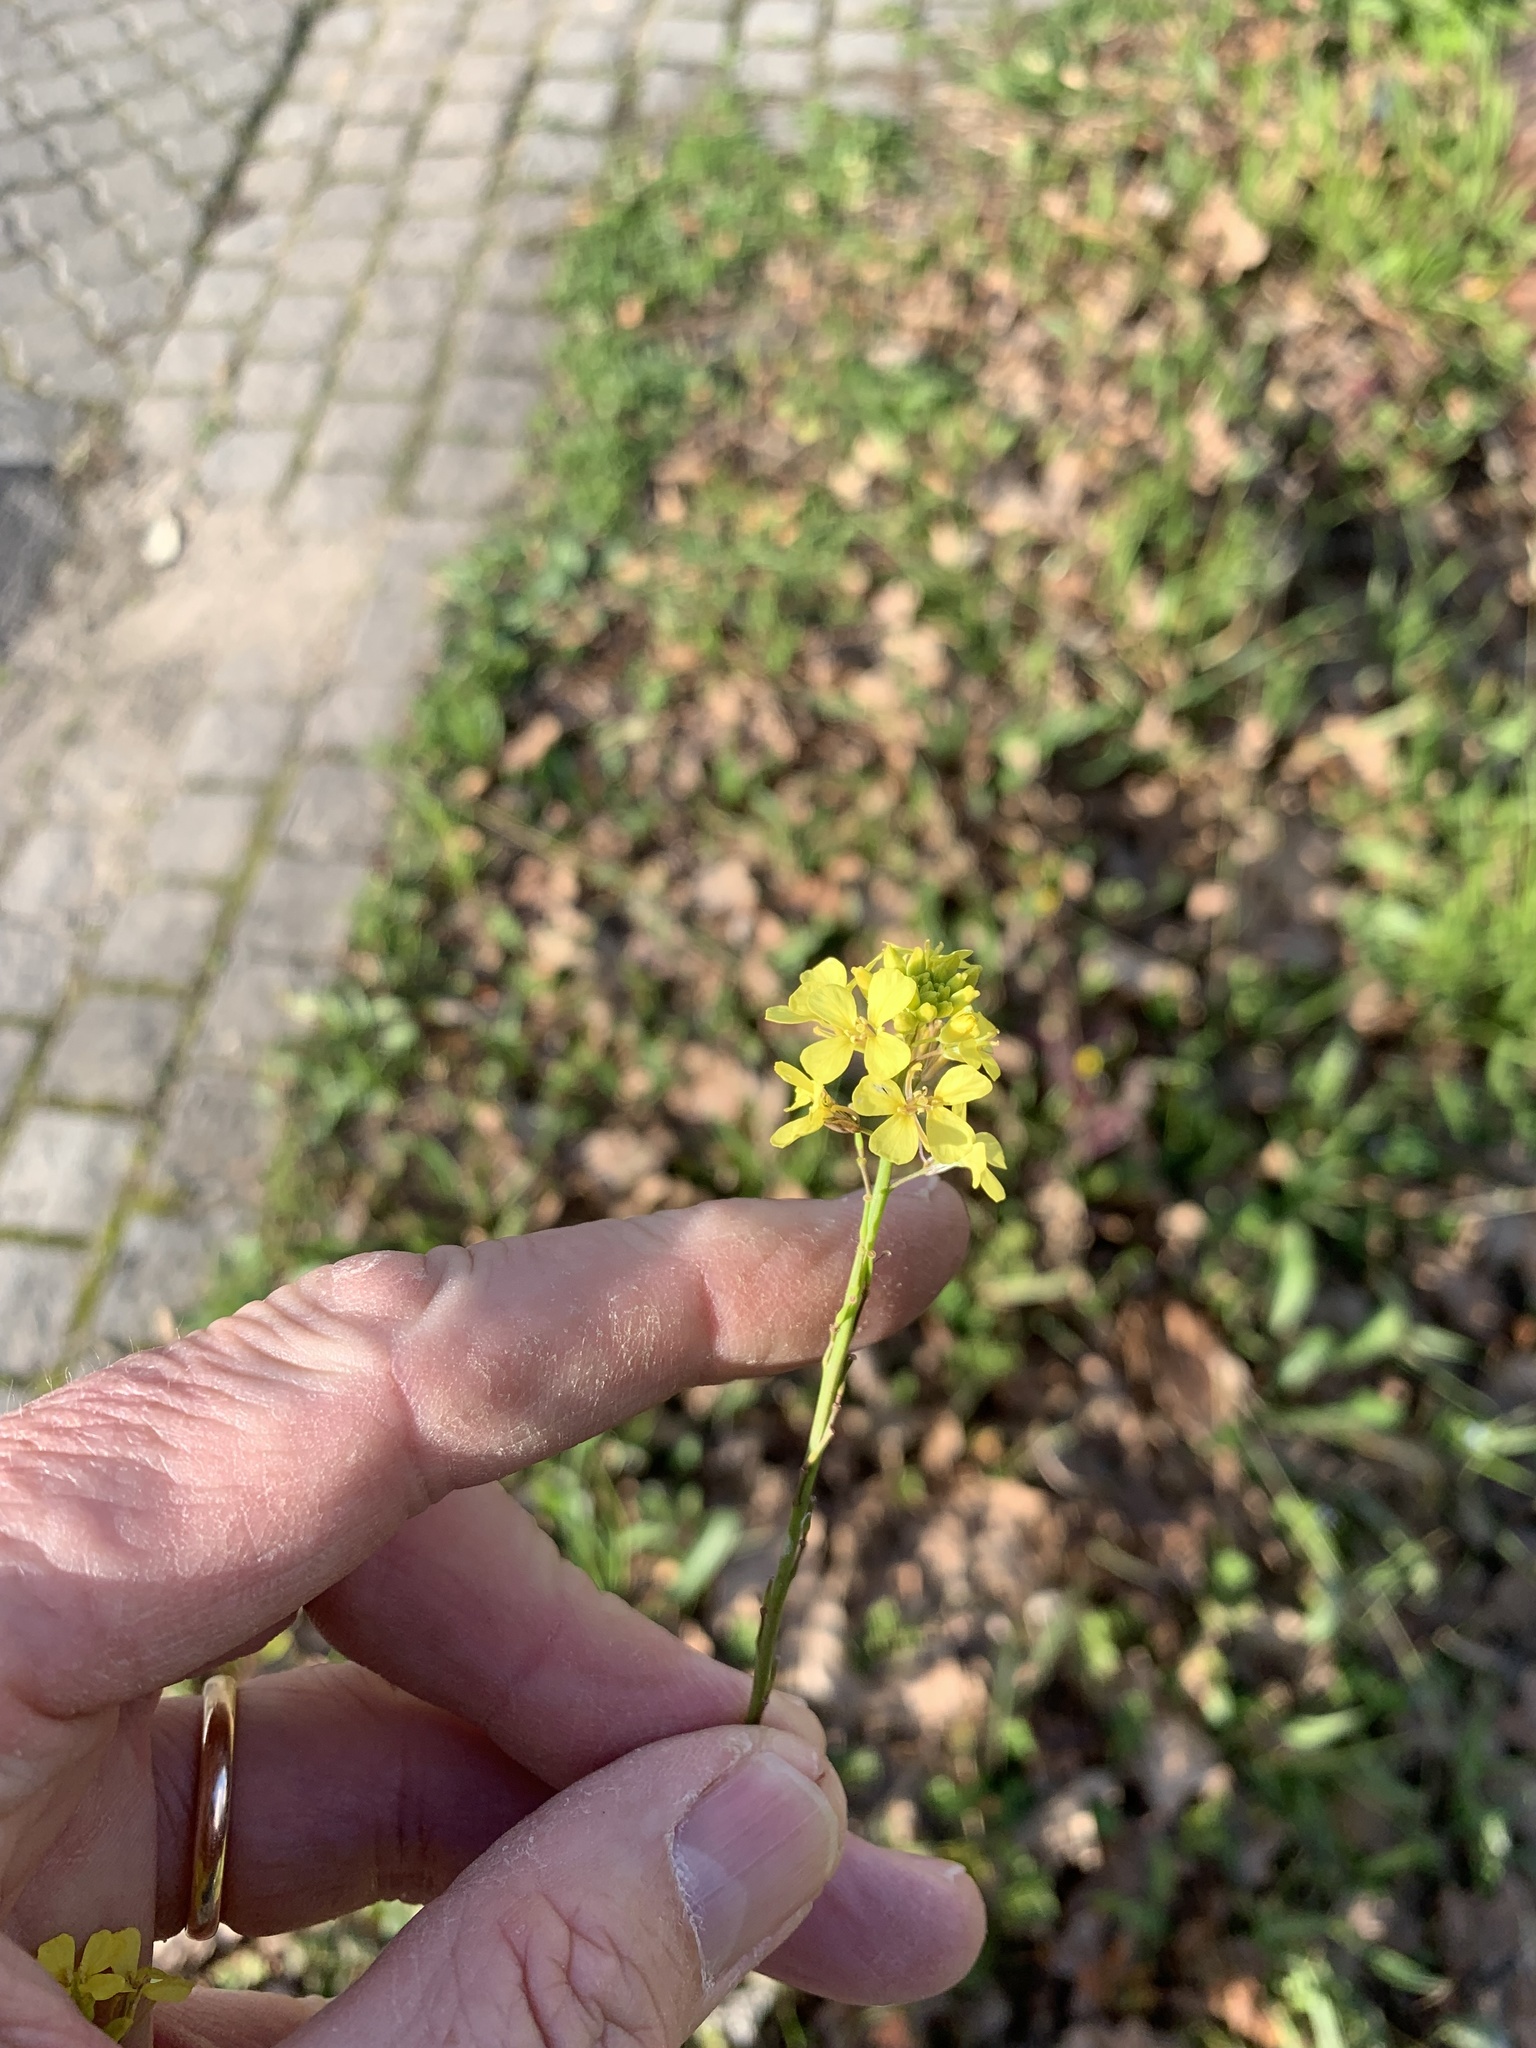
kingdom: Plantae
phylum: Tracheophyta
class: Magnoliopsida
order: Brassicales
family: Brassicaceae
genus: Rapistrum
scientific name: Rapistrum rugosum
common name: Annual bastardcabbage
